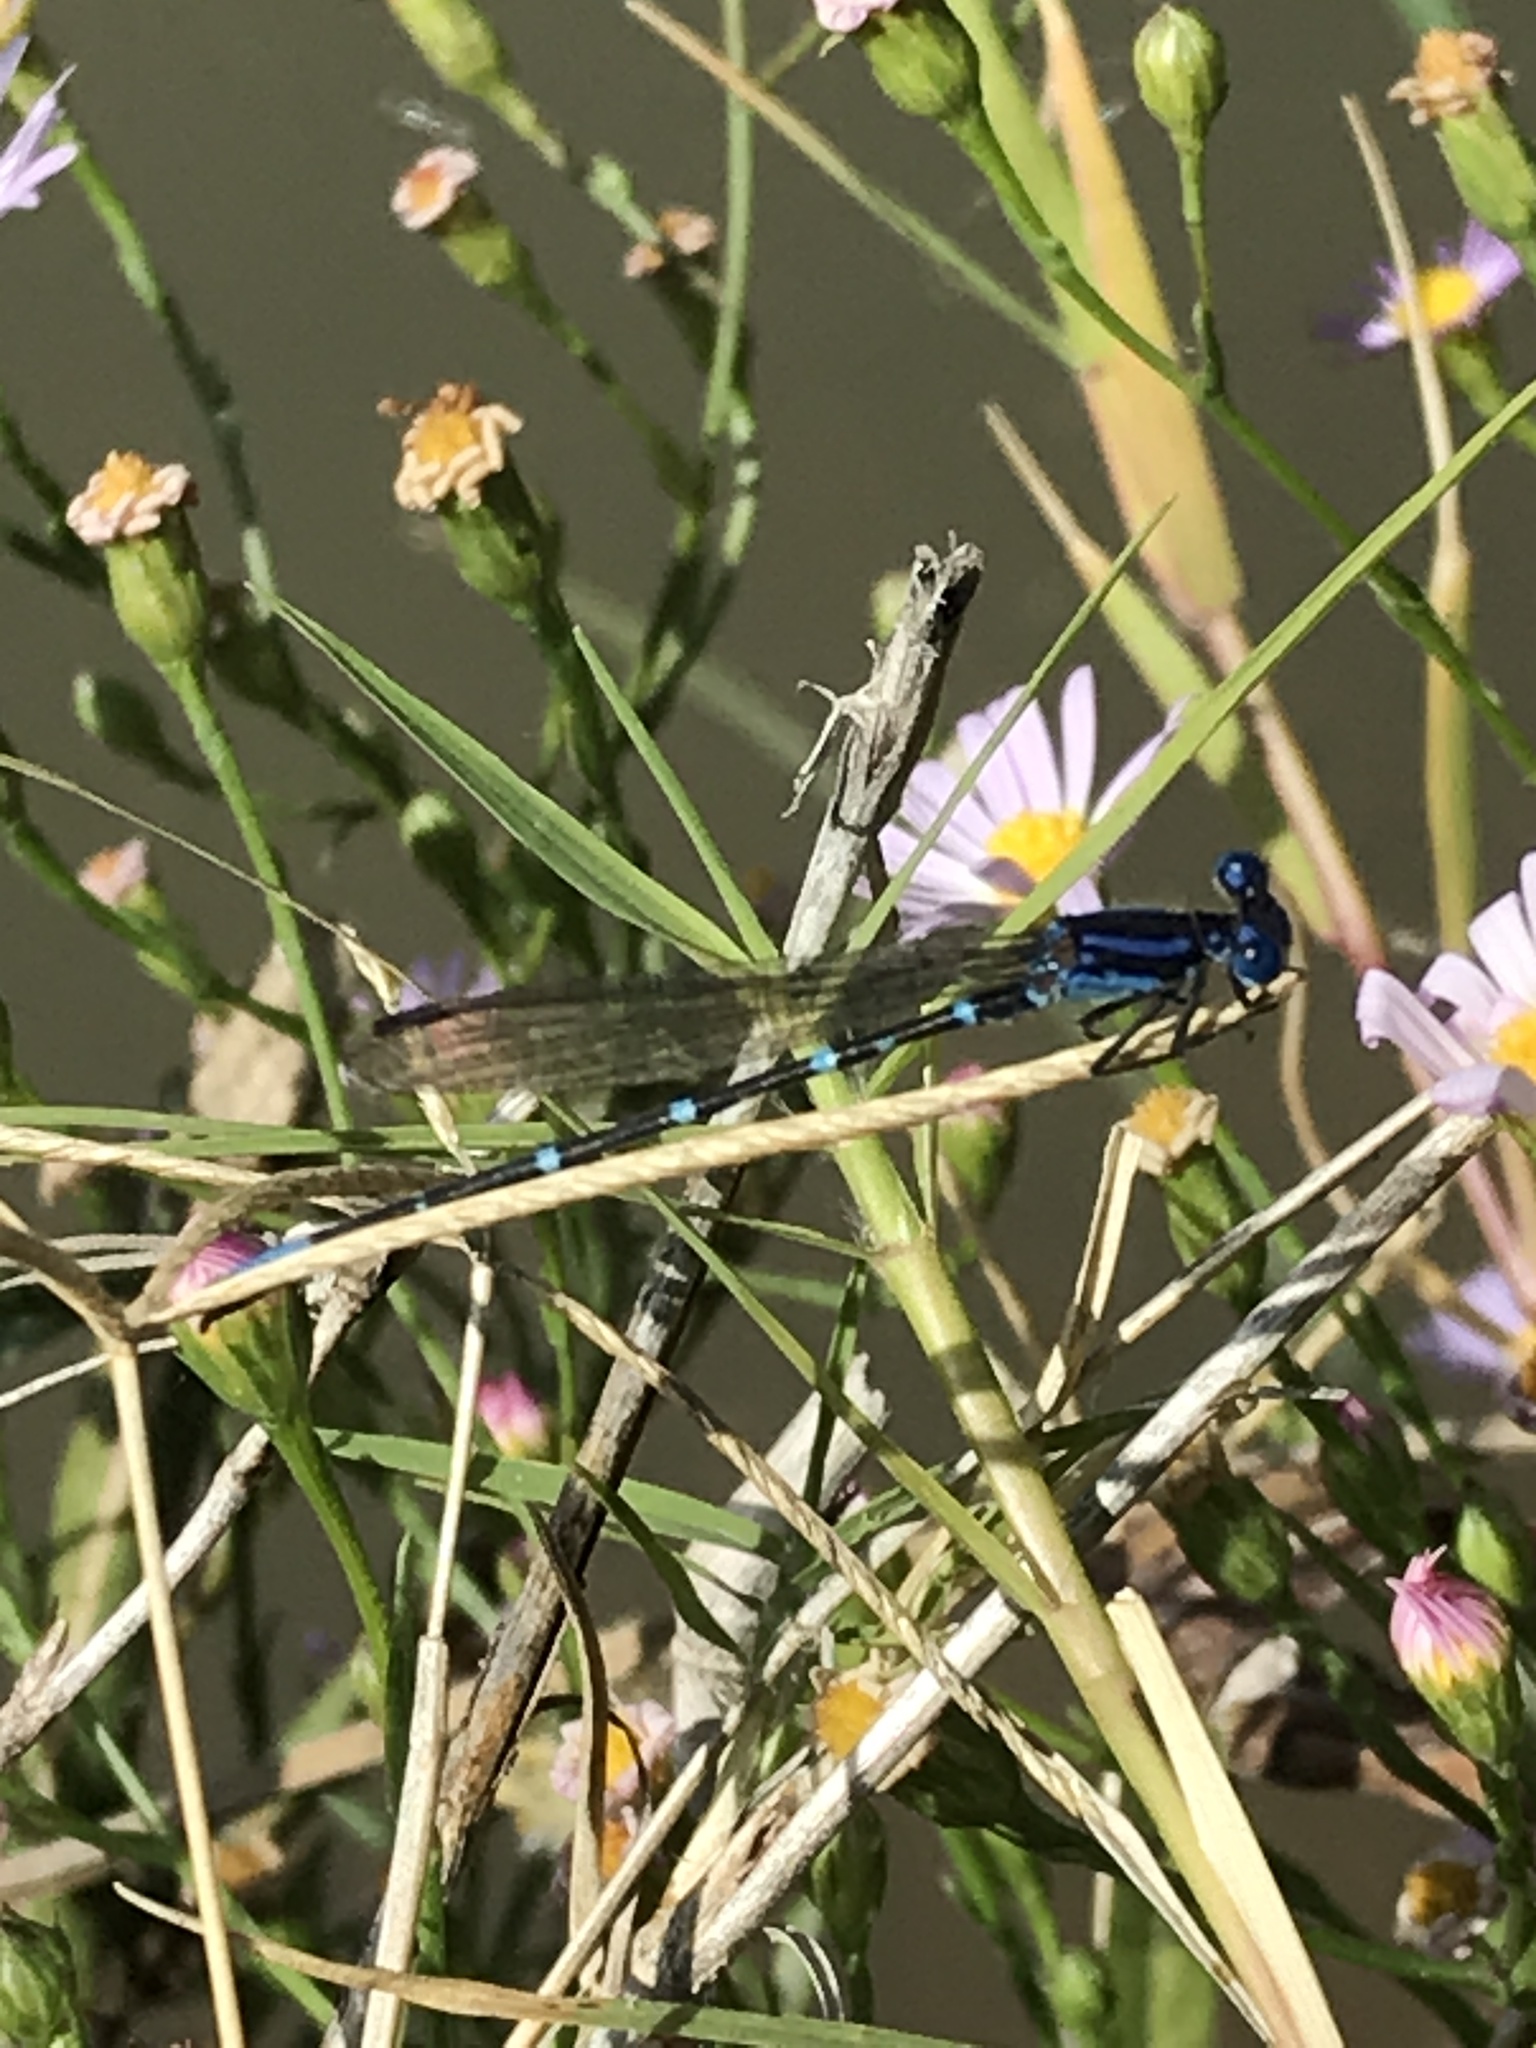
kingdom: Animalia
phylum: Arthropoda
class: Insecta
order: Odonata
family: Coenagrionidae
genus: Argia
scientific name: Argia sedula
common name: Blue-ringed dancer
